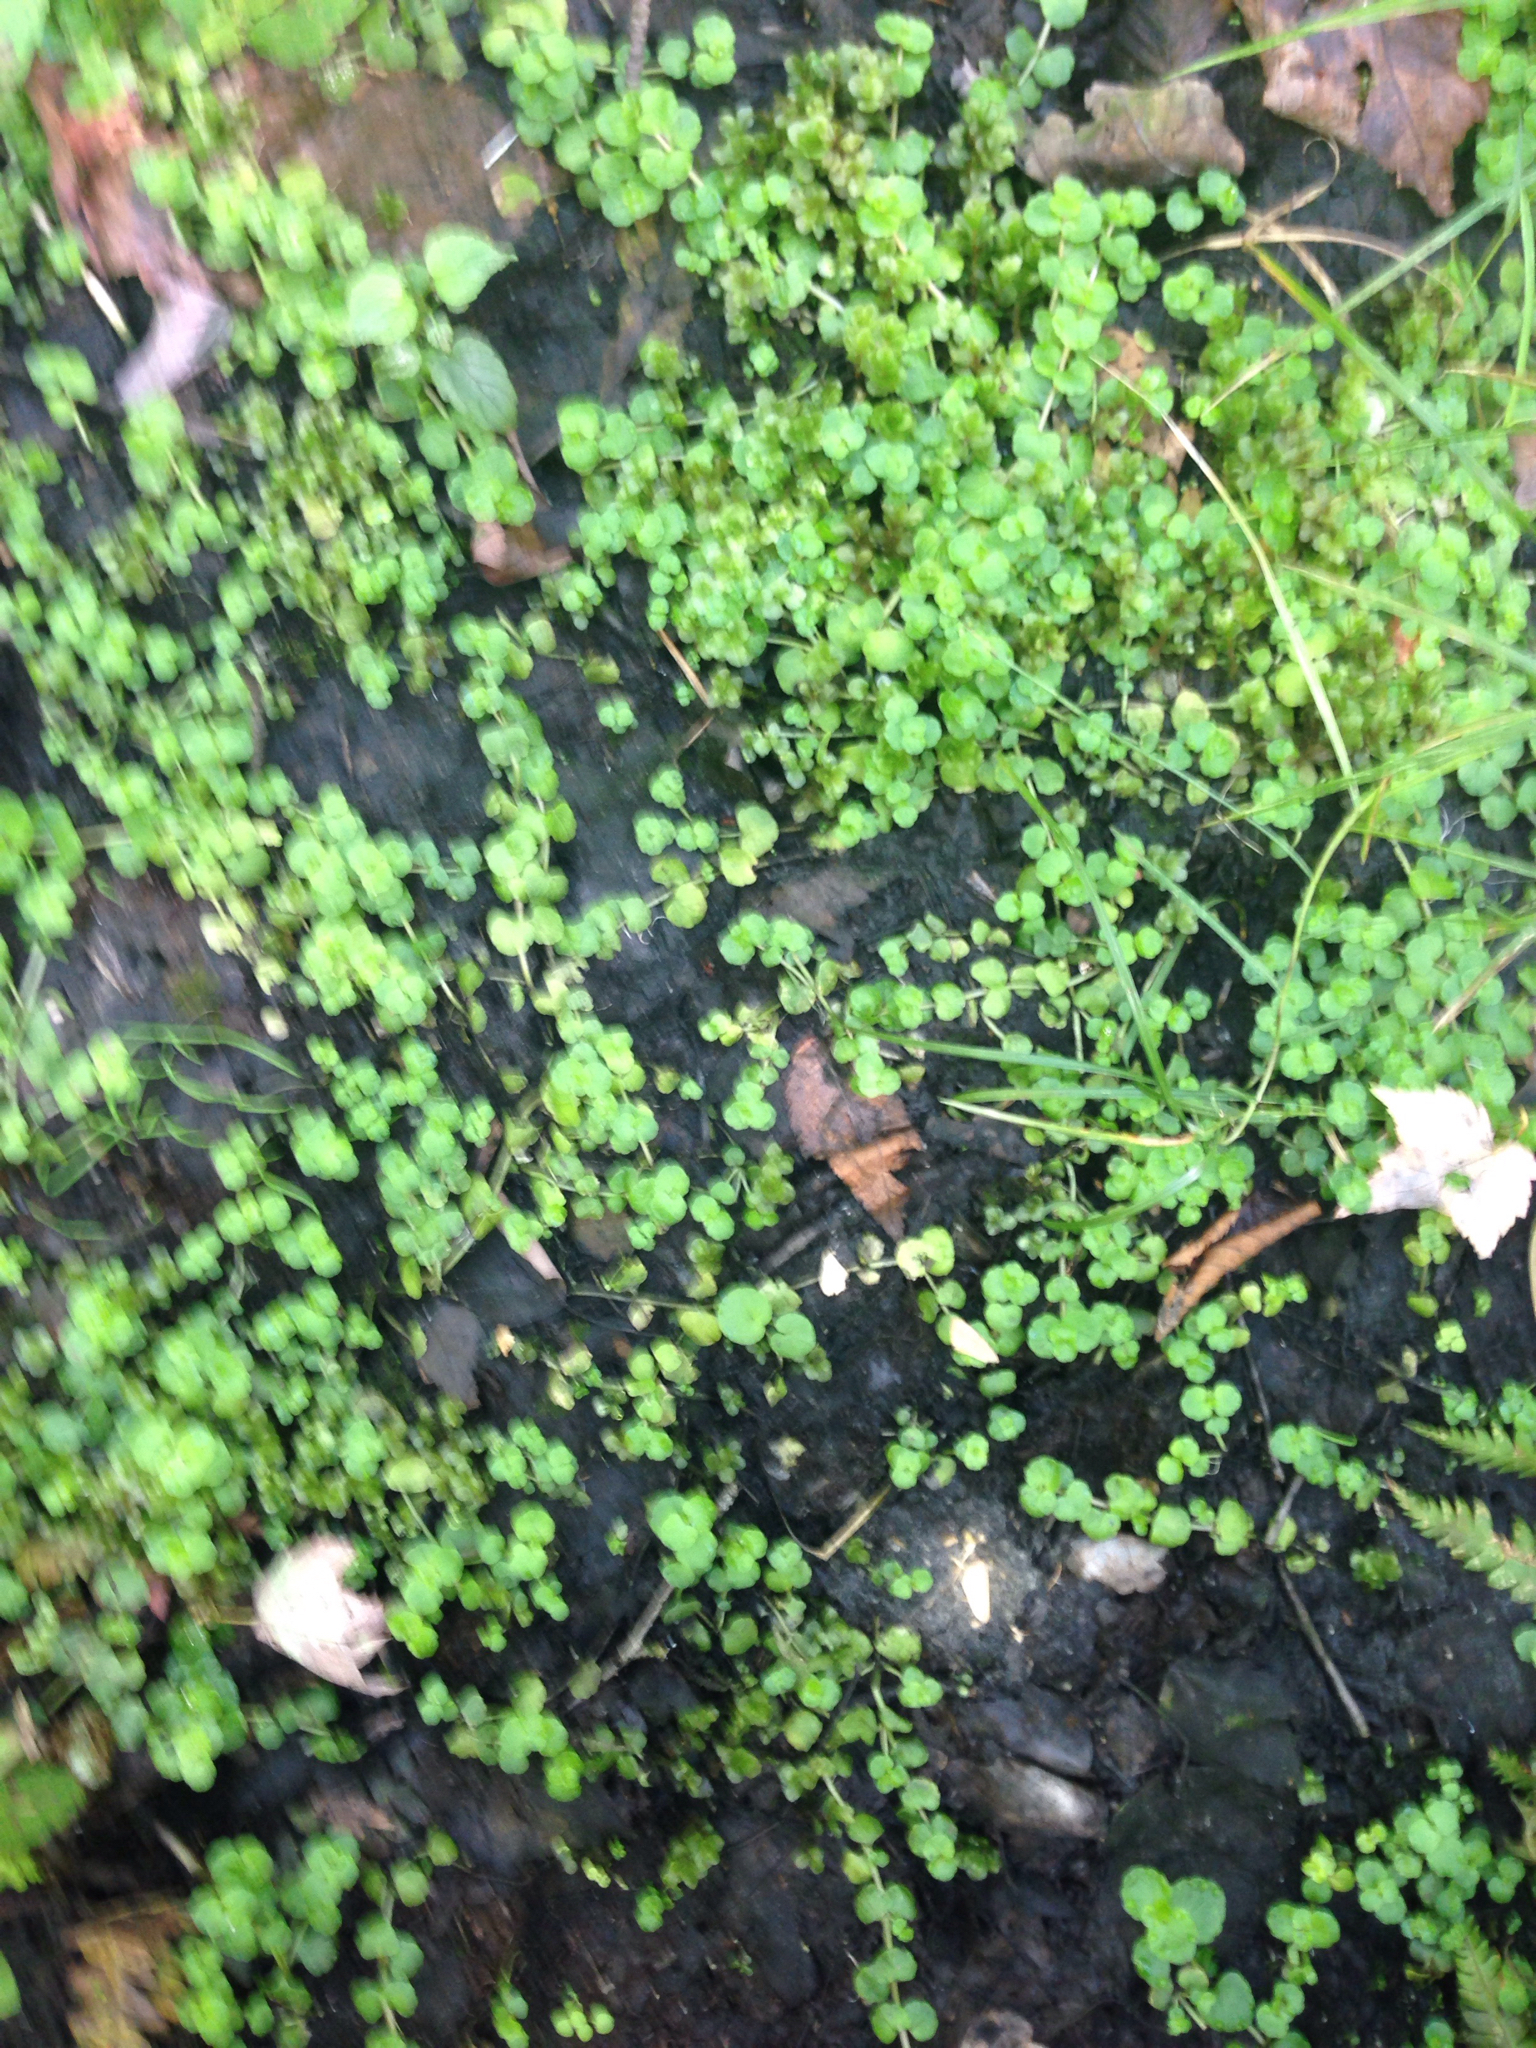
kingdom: Plantae
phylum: Tracheophyta
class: Magnoliopsida
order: Saxifragales
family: Saxifragaceae
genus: Chrysosplenium
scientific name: Chrysosplenium americanum
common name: American golden-saxifrage
